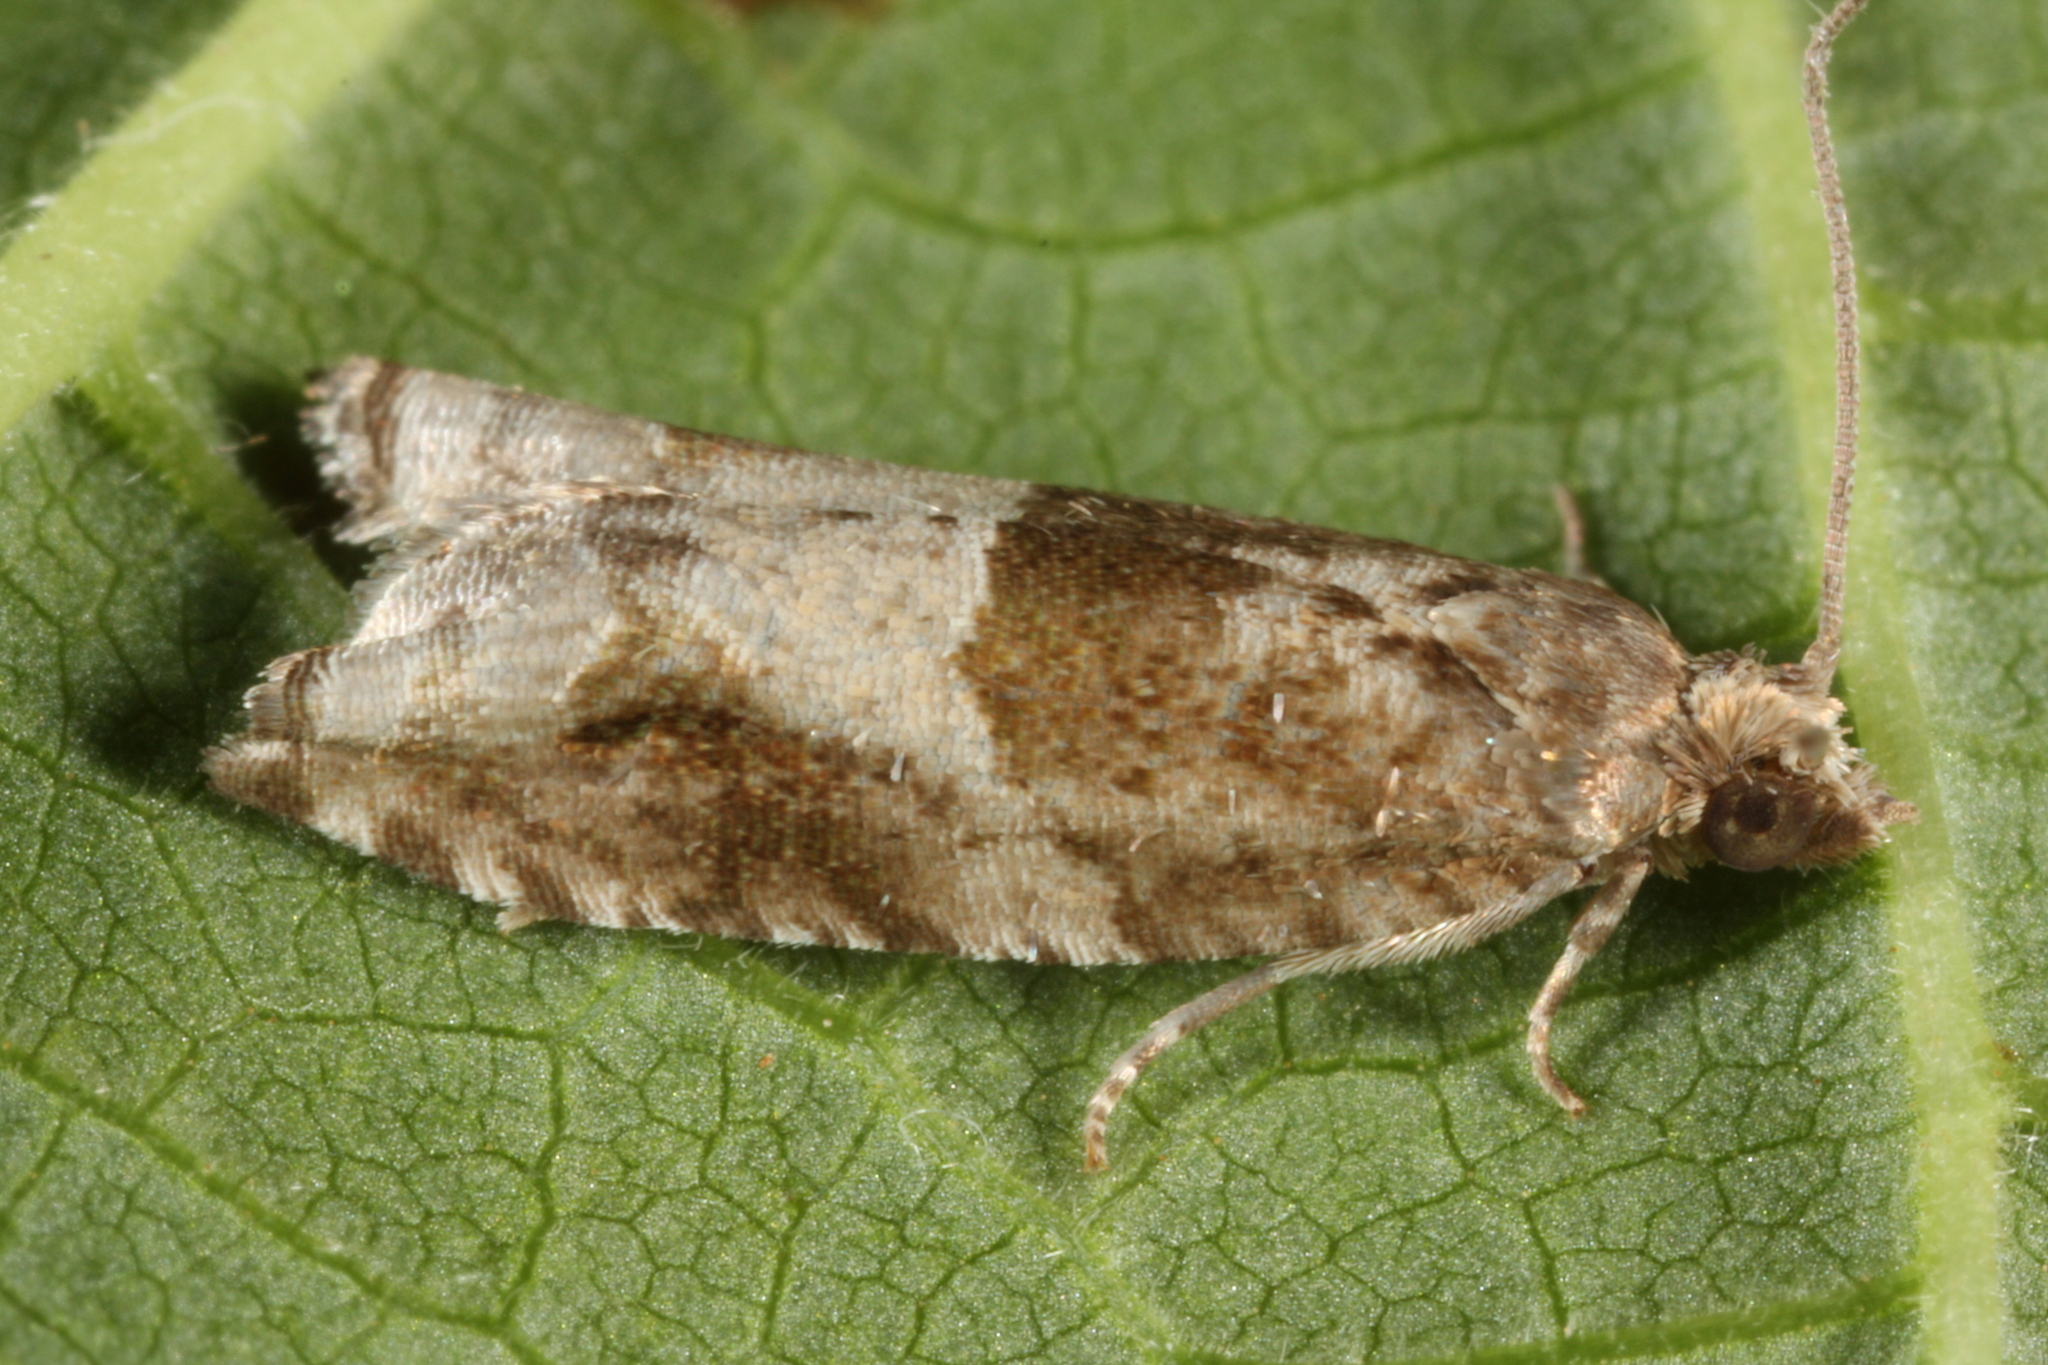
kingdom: Animalia
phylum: Arthropoda
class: Insecta
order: Lepidoptera
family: Tortricidae
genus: Rhopobota
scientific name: Rhopobota naevana
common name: Blackheaded fireworm, holly tortrix
